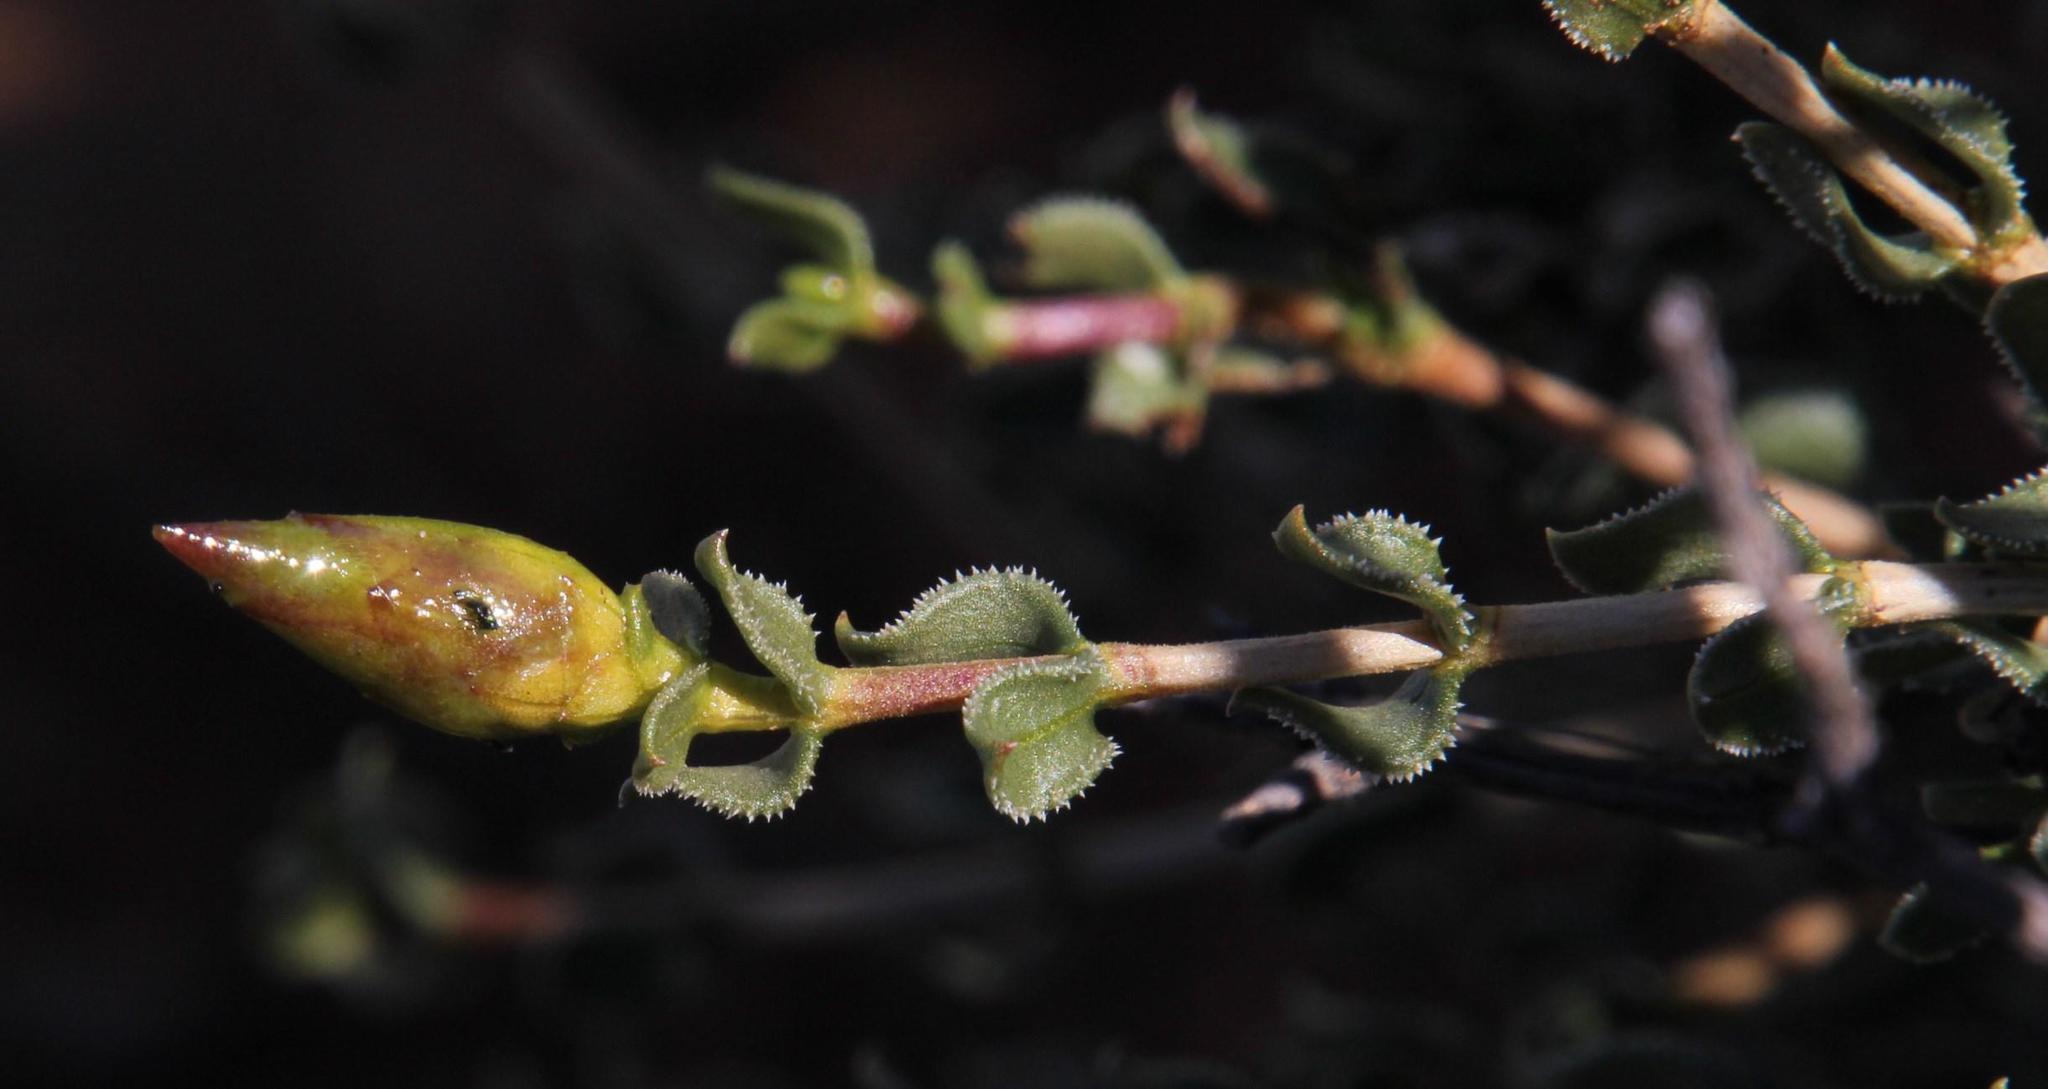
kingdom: Plantae
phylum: Tracheophyta
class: Magnoliopsida
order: Asterales
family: Asteraceae
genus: Pteronia
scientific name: Pteronia adenocarpa
